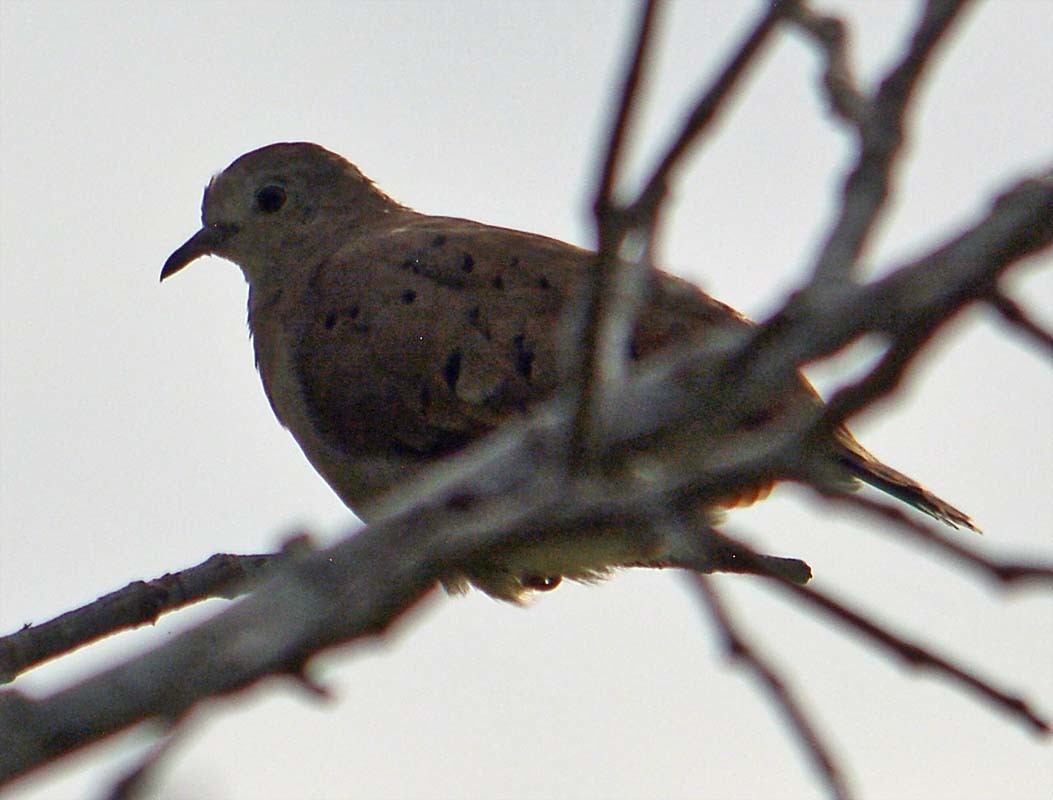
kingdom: Animalia
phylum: Chordata
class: Aves
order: Columbiformes
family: Columbidae
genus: Zenaida
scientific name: Zenaida macroura
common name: Mourning dove
